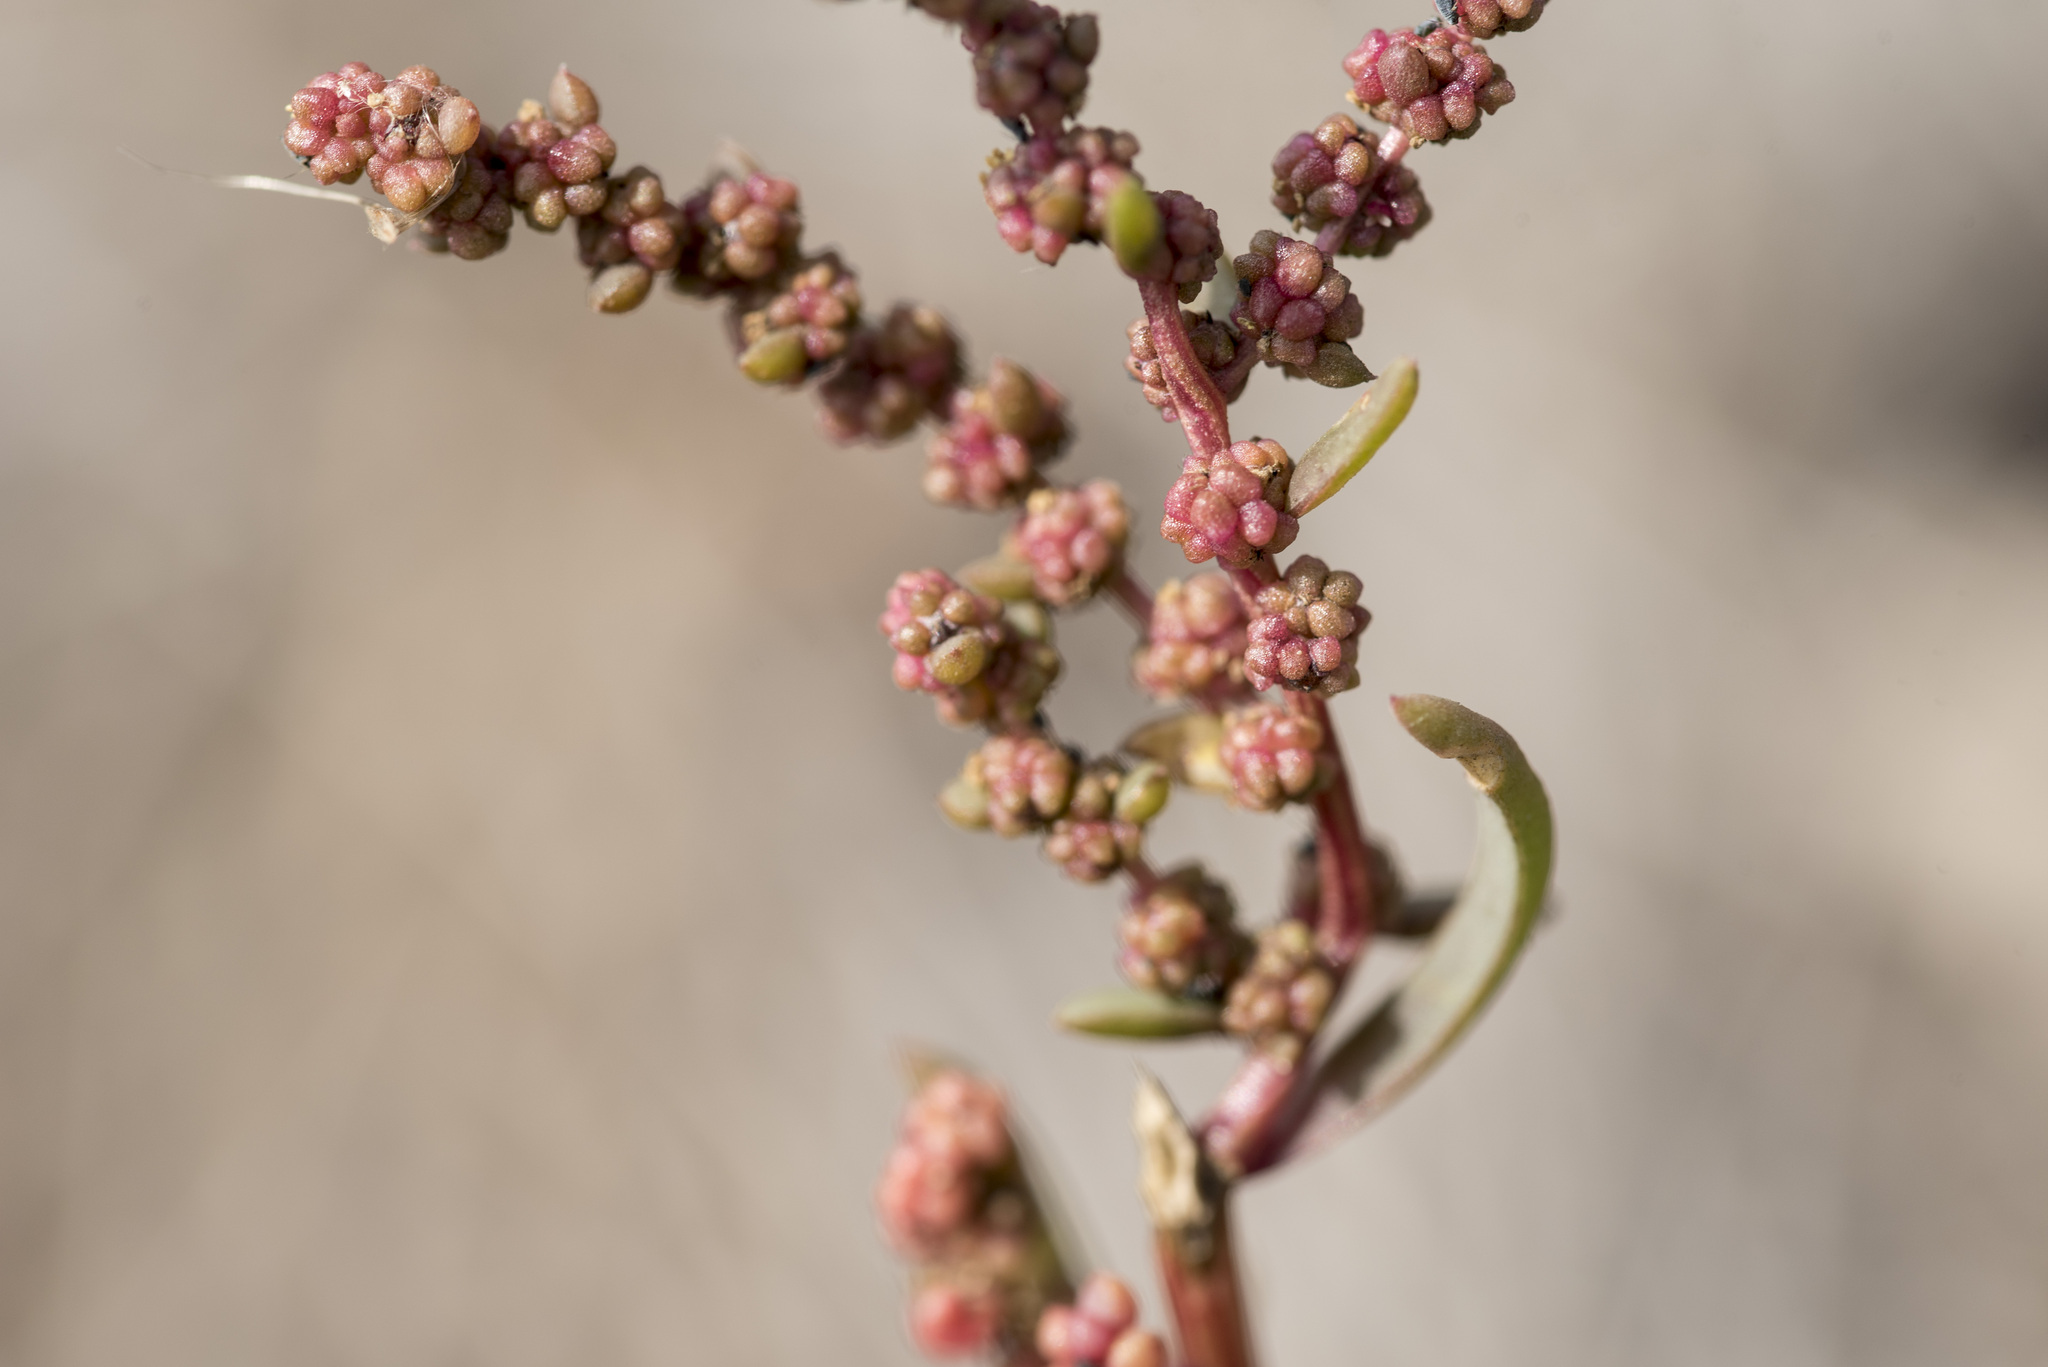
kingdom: Plantae
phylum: Tracheophyta
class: Magnoliopsida
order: Caryophyllales
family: Amaranthaceae
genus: Suaeda
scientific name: Suaeda maritima
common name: Annual sea-blite
